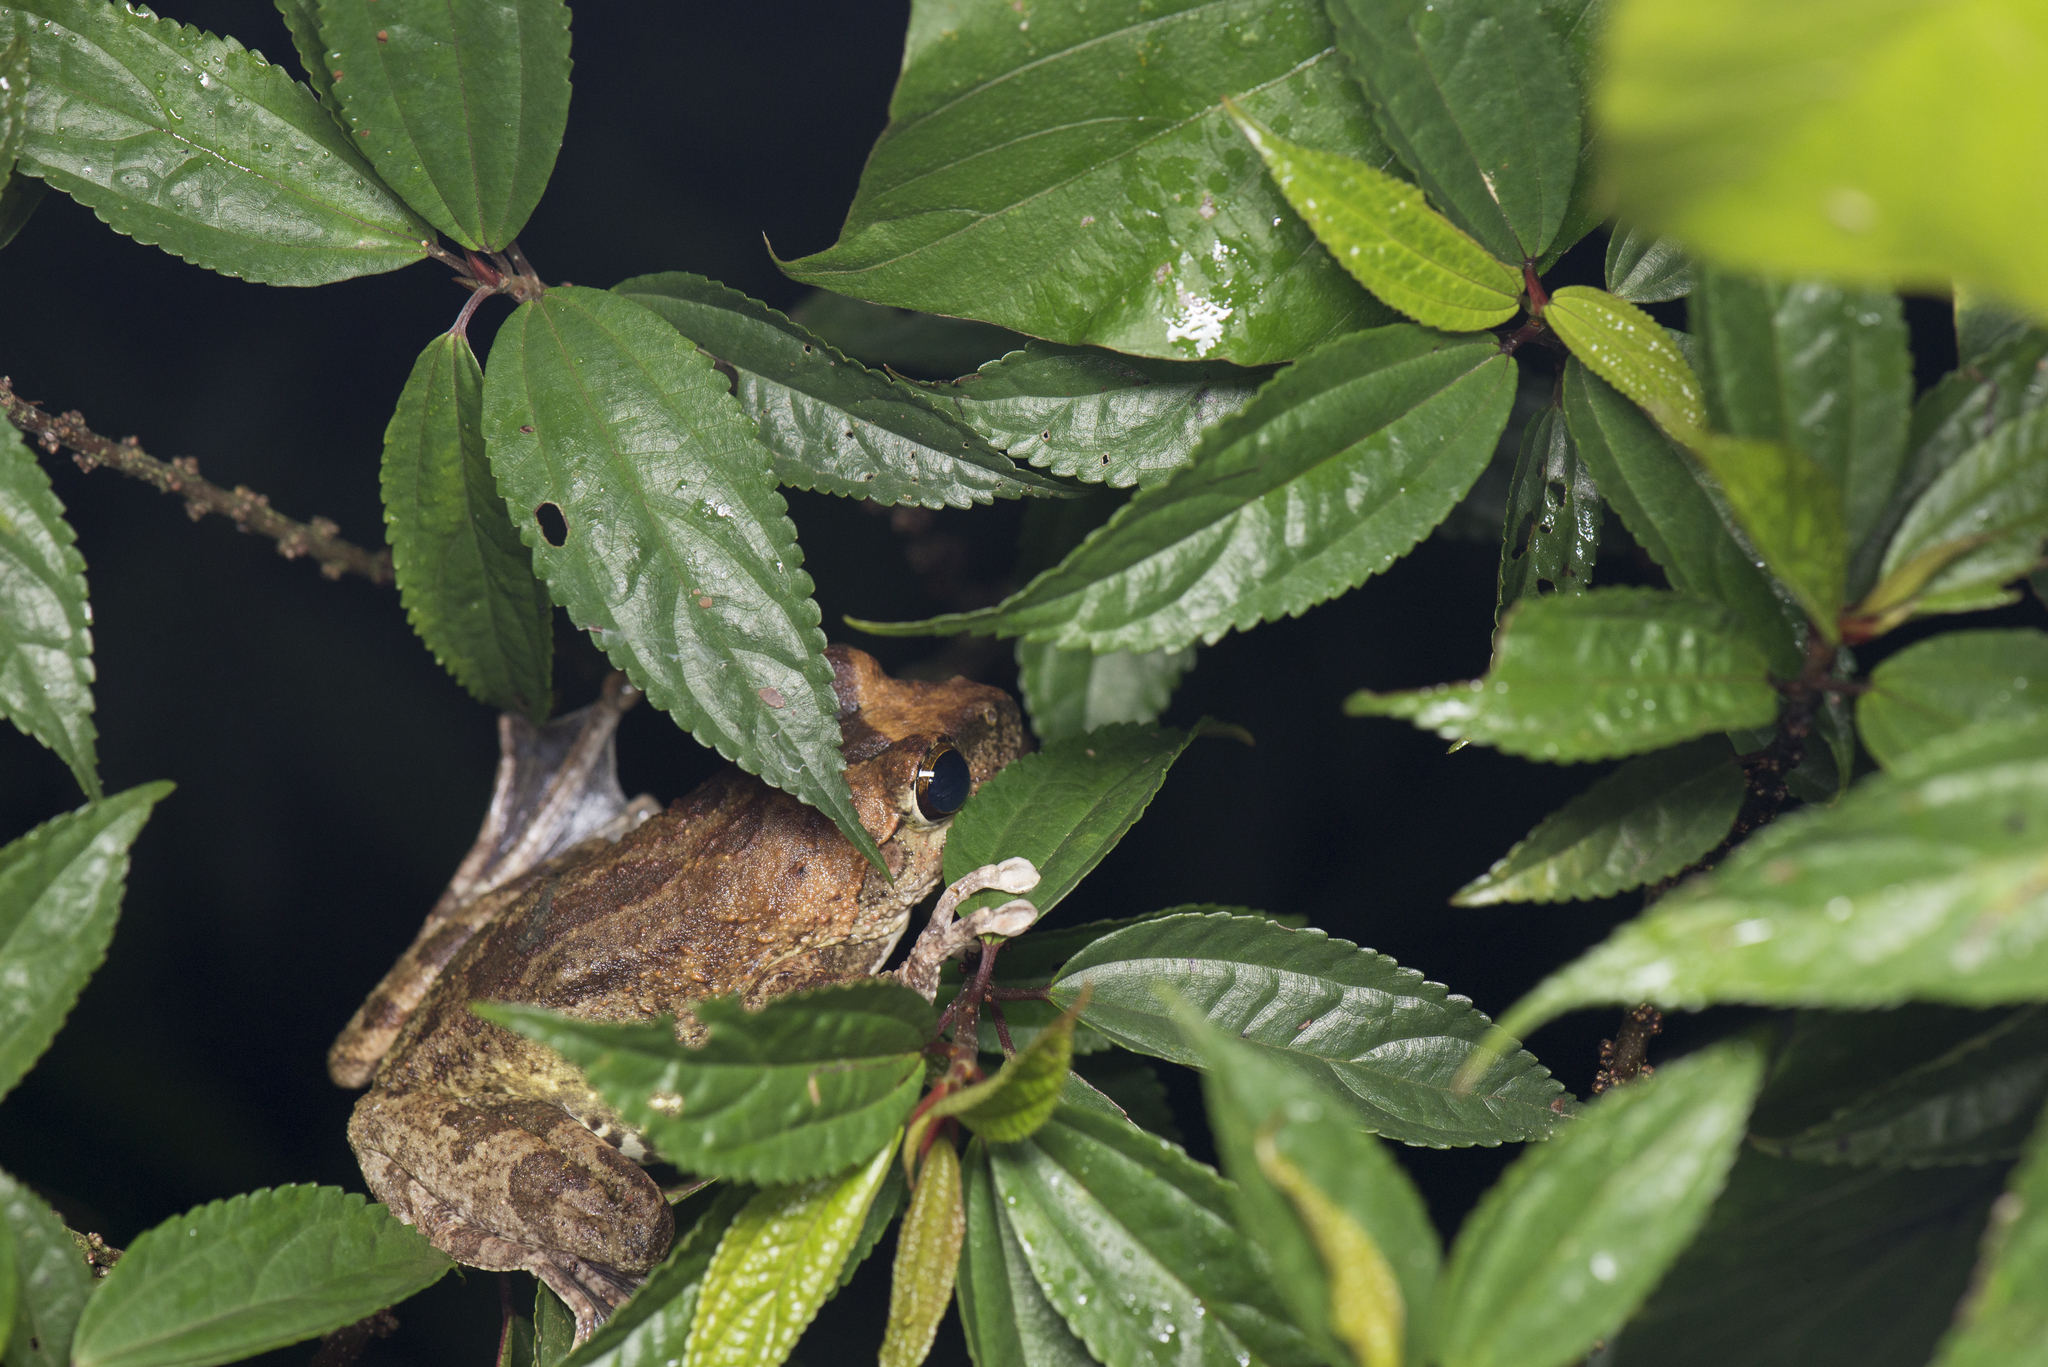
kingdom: Animalia
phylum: Chordata
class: Amphibia
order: Anura
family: Rhacophoridae
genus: Buergeria
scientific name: Buergeria robusta
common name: Brown treefrog
